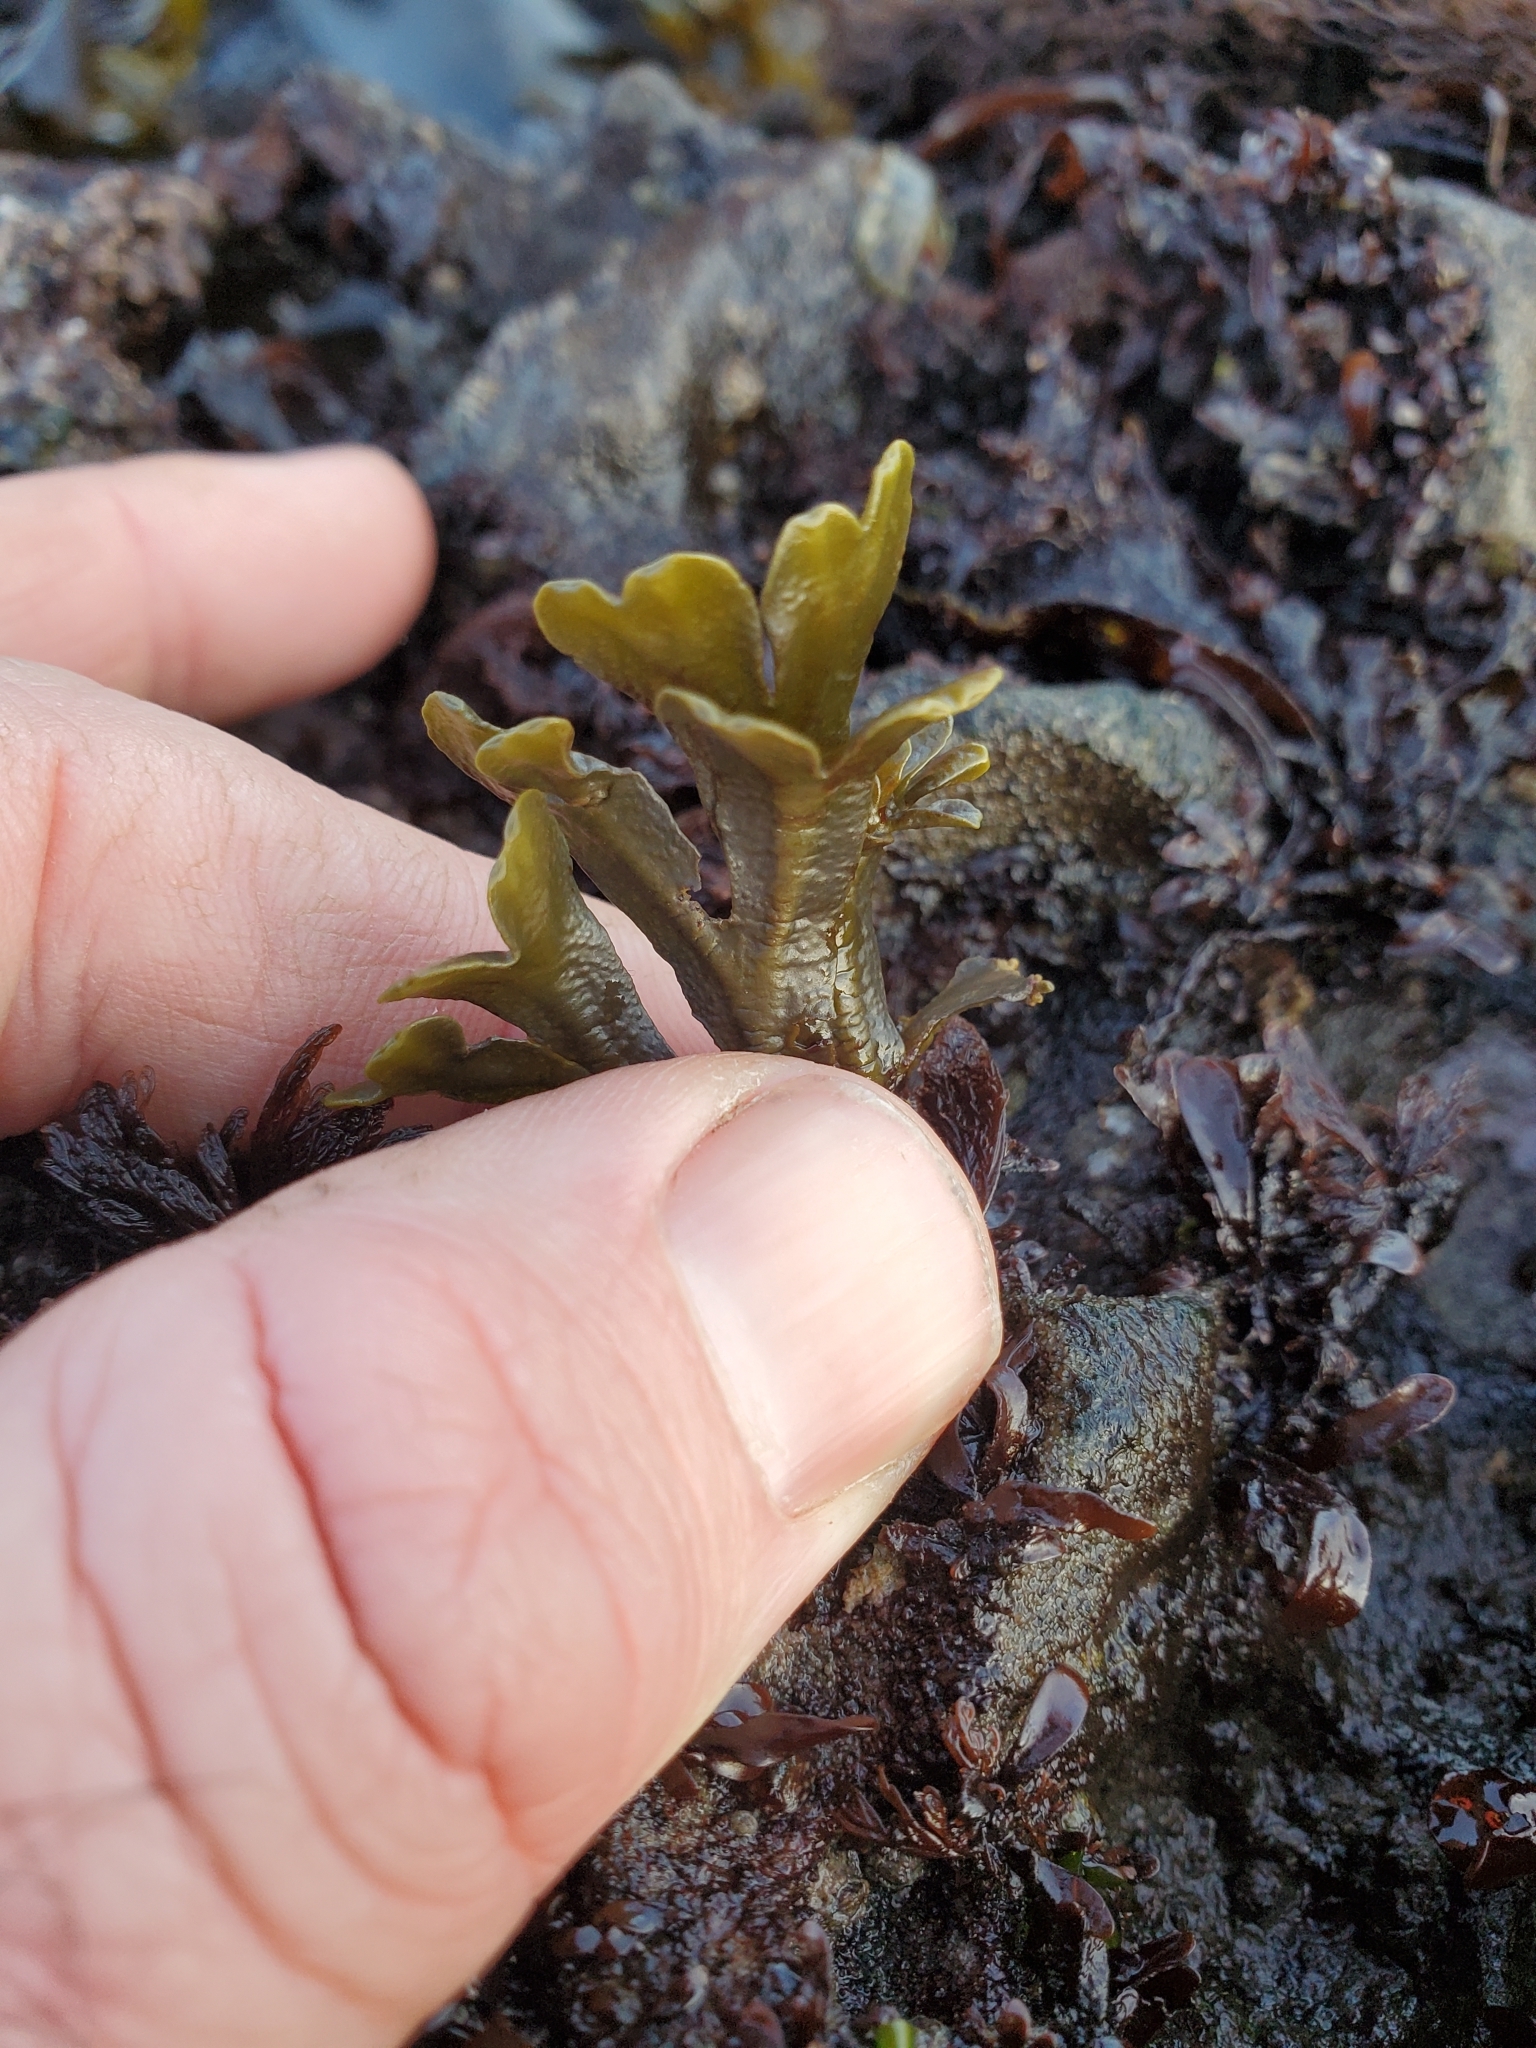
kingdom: Chromista
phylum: Ochrophyta
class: Phaeophyceae
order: Fucales
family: Fucaceae
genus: Fucus
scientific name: Fucus distichus
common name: Rockweed
